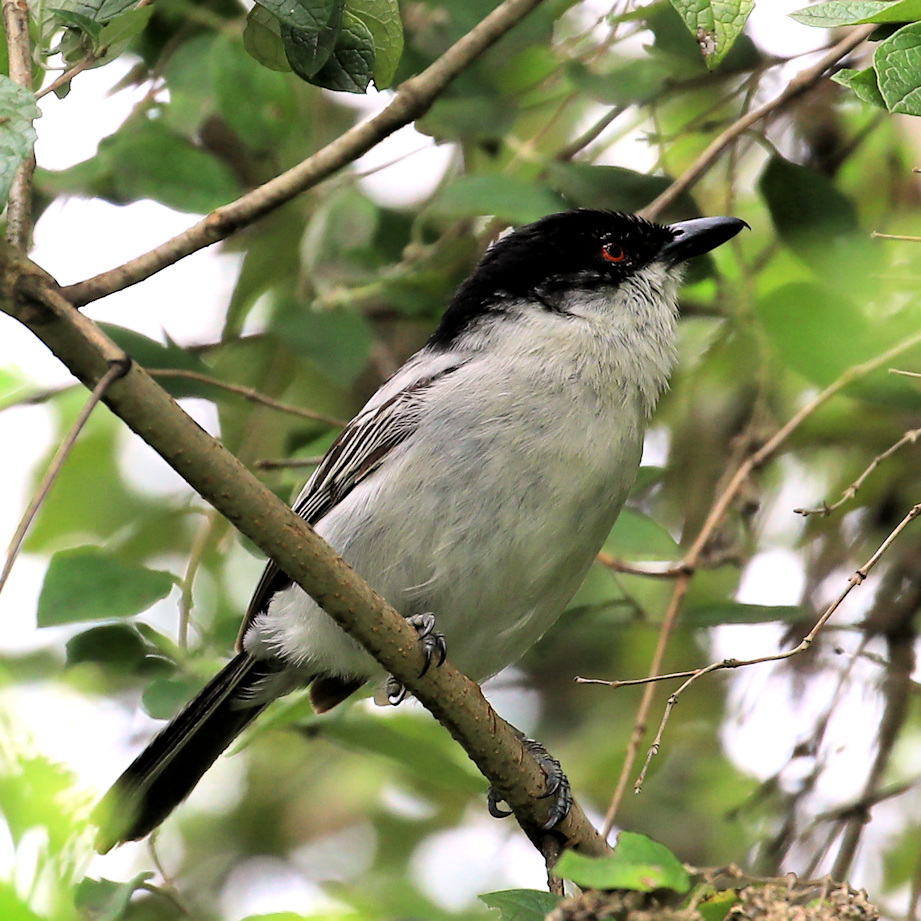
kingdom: Animalia
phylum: Chordata
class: Aves
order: Passeriformes
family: Malaconotidae
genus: Dryoscopus
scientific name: Dryoscopus cubla
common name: Black-backed puffback
